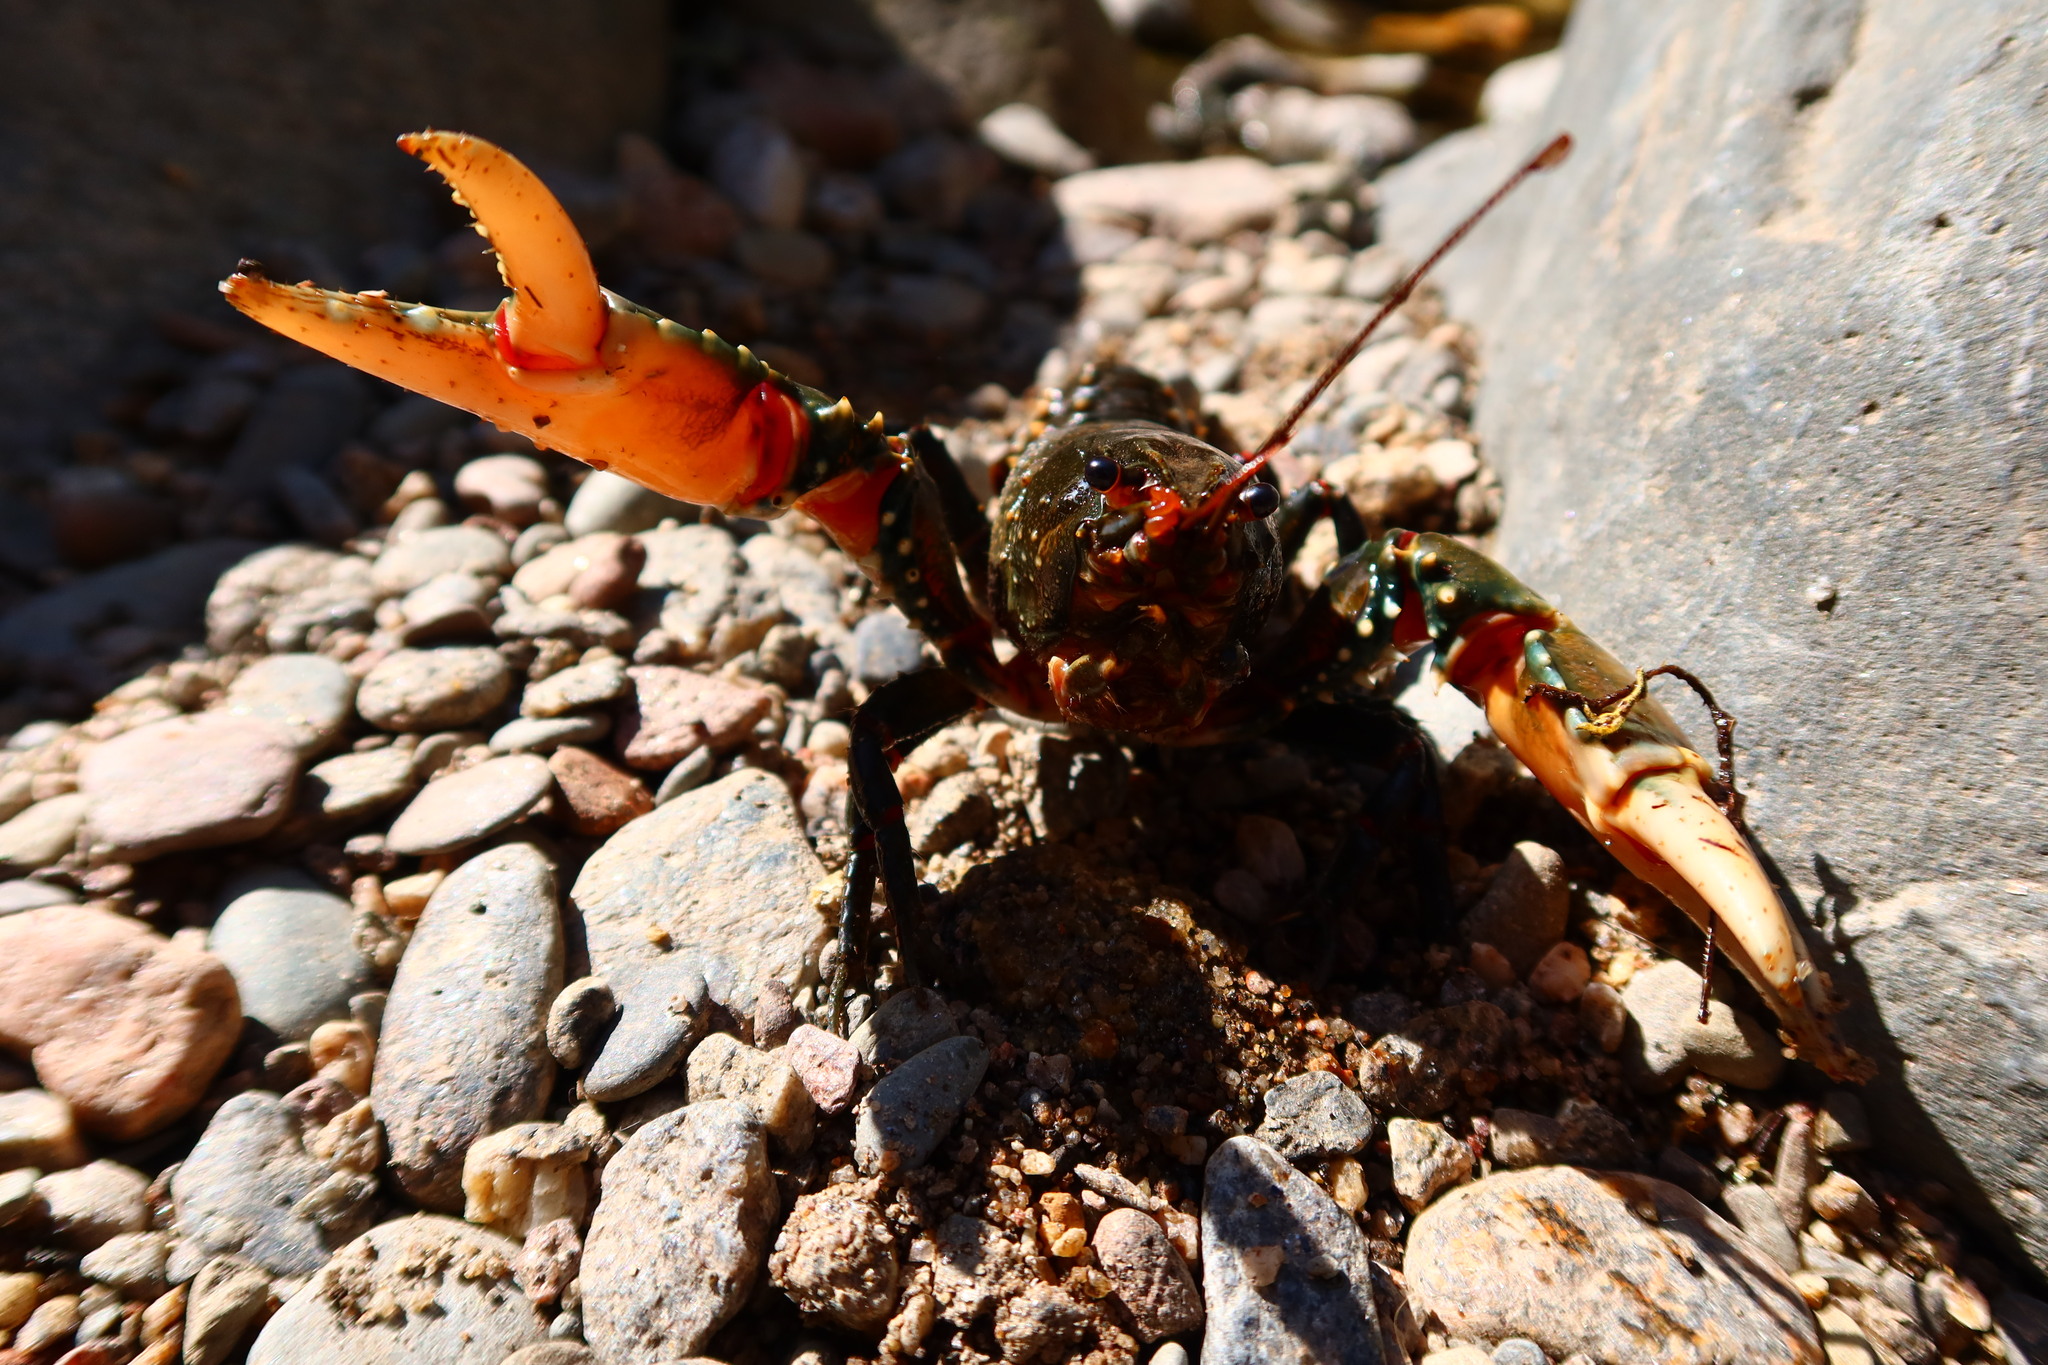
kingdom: Animalia
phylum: Arthropoda
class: Malacostraca
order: Decapoda
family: Parastacidae
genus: Euastacus
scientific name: Euastacus armatus
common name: Murray river crayfish
